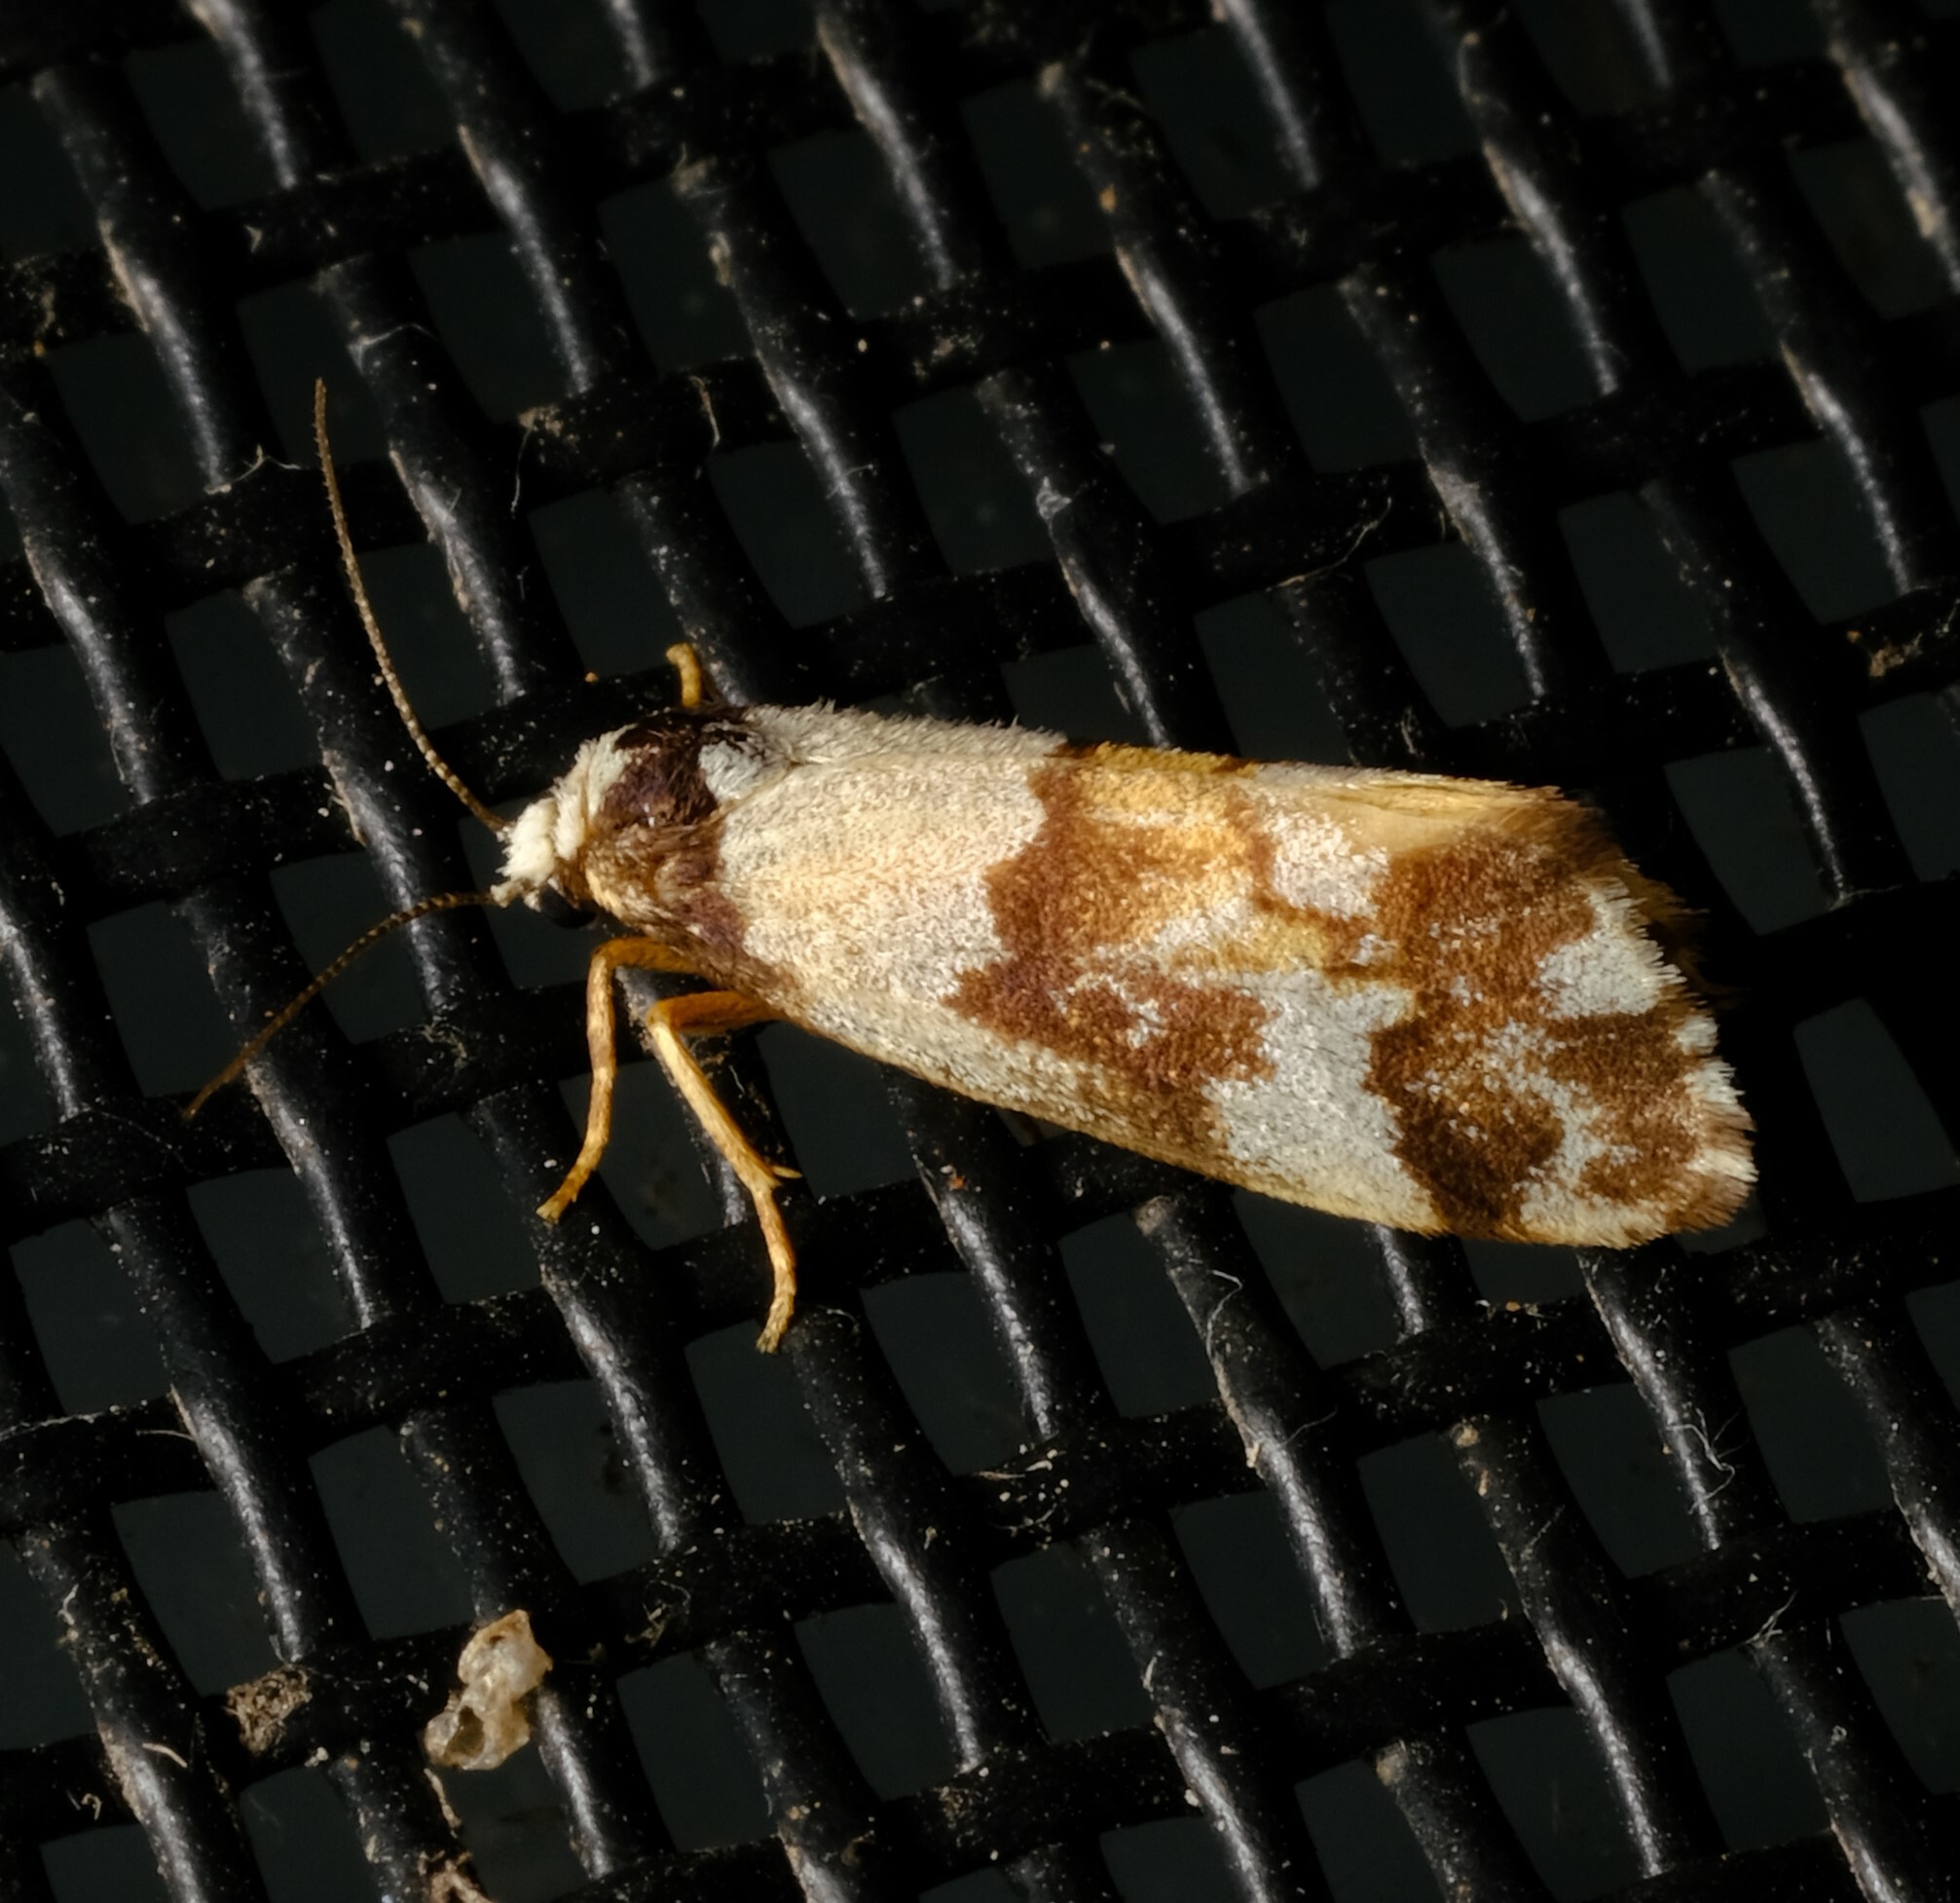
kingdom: Animalia
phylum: Arthropoda
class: Insecta
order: Lepidoptera
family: Erebidae
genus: Philenora
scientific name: Philenora aspectalella
